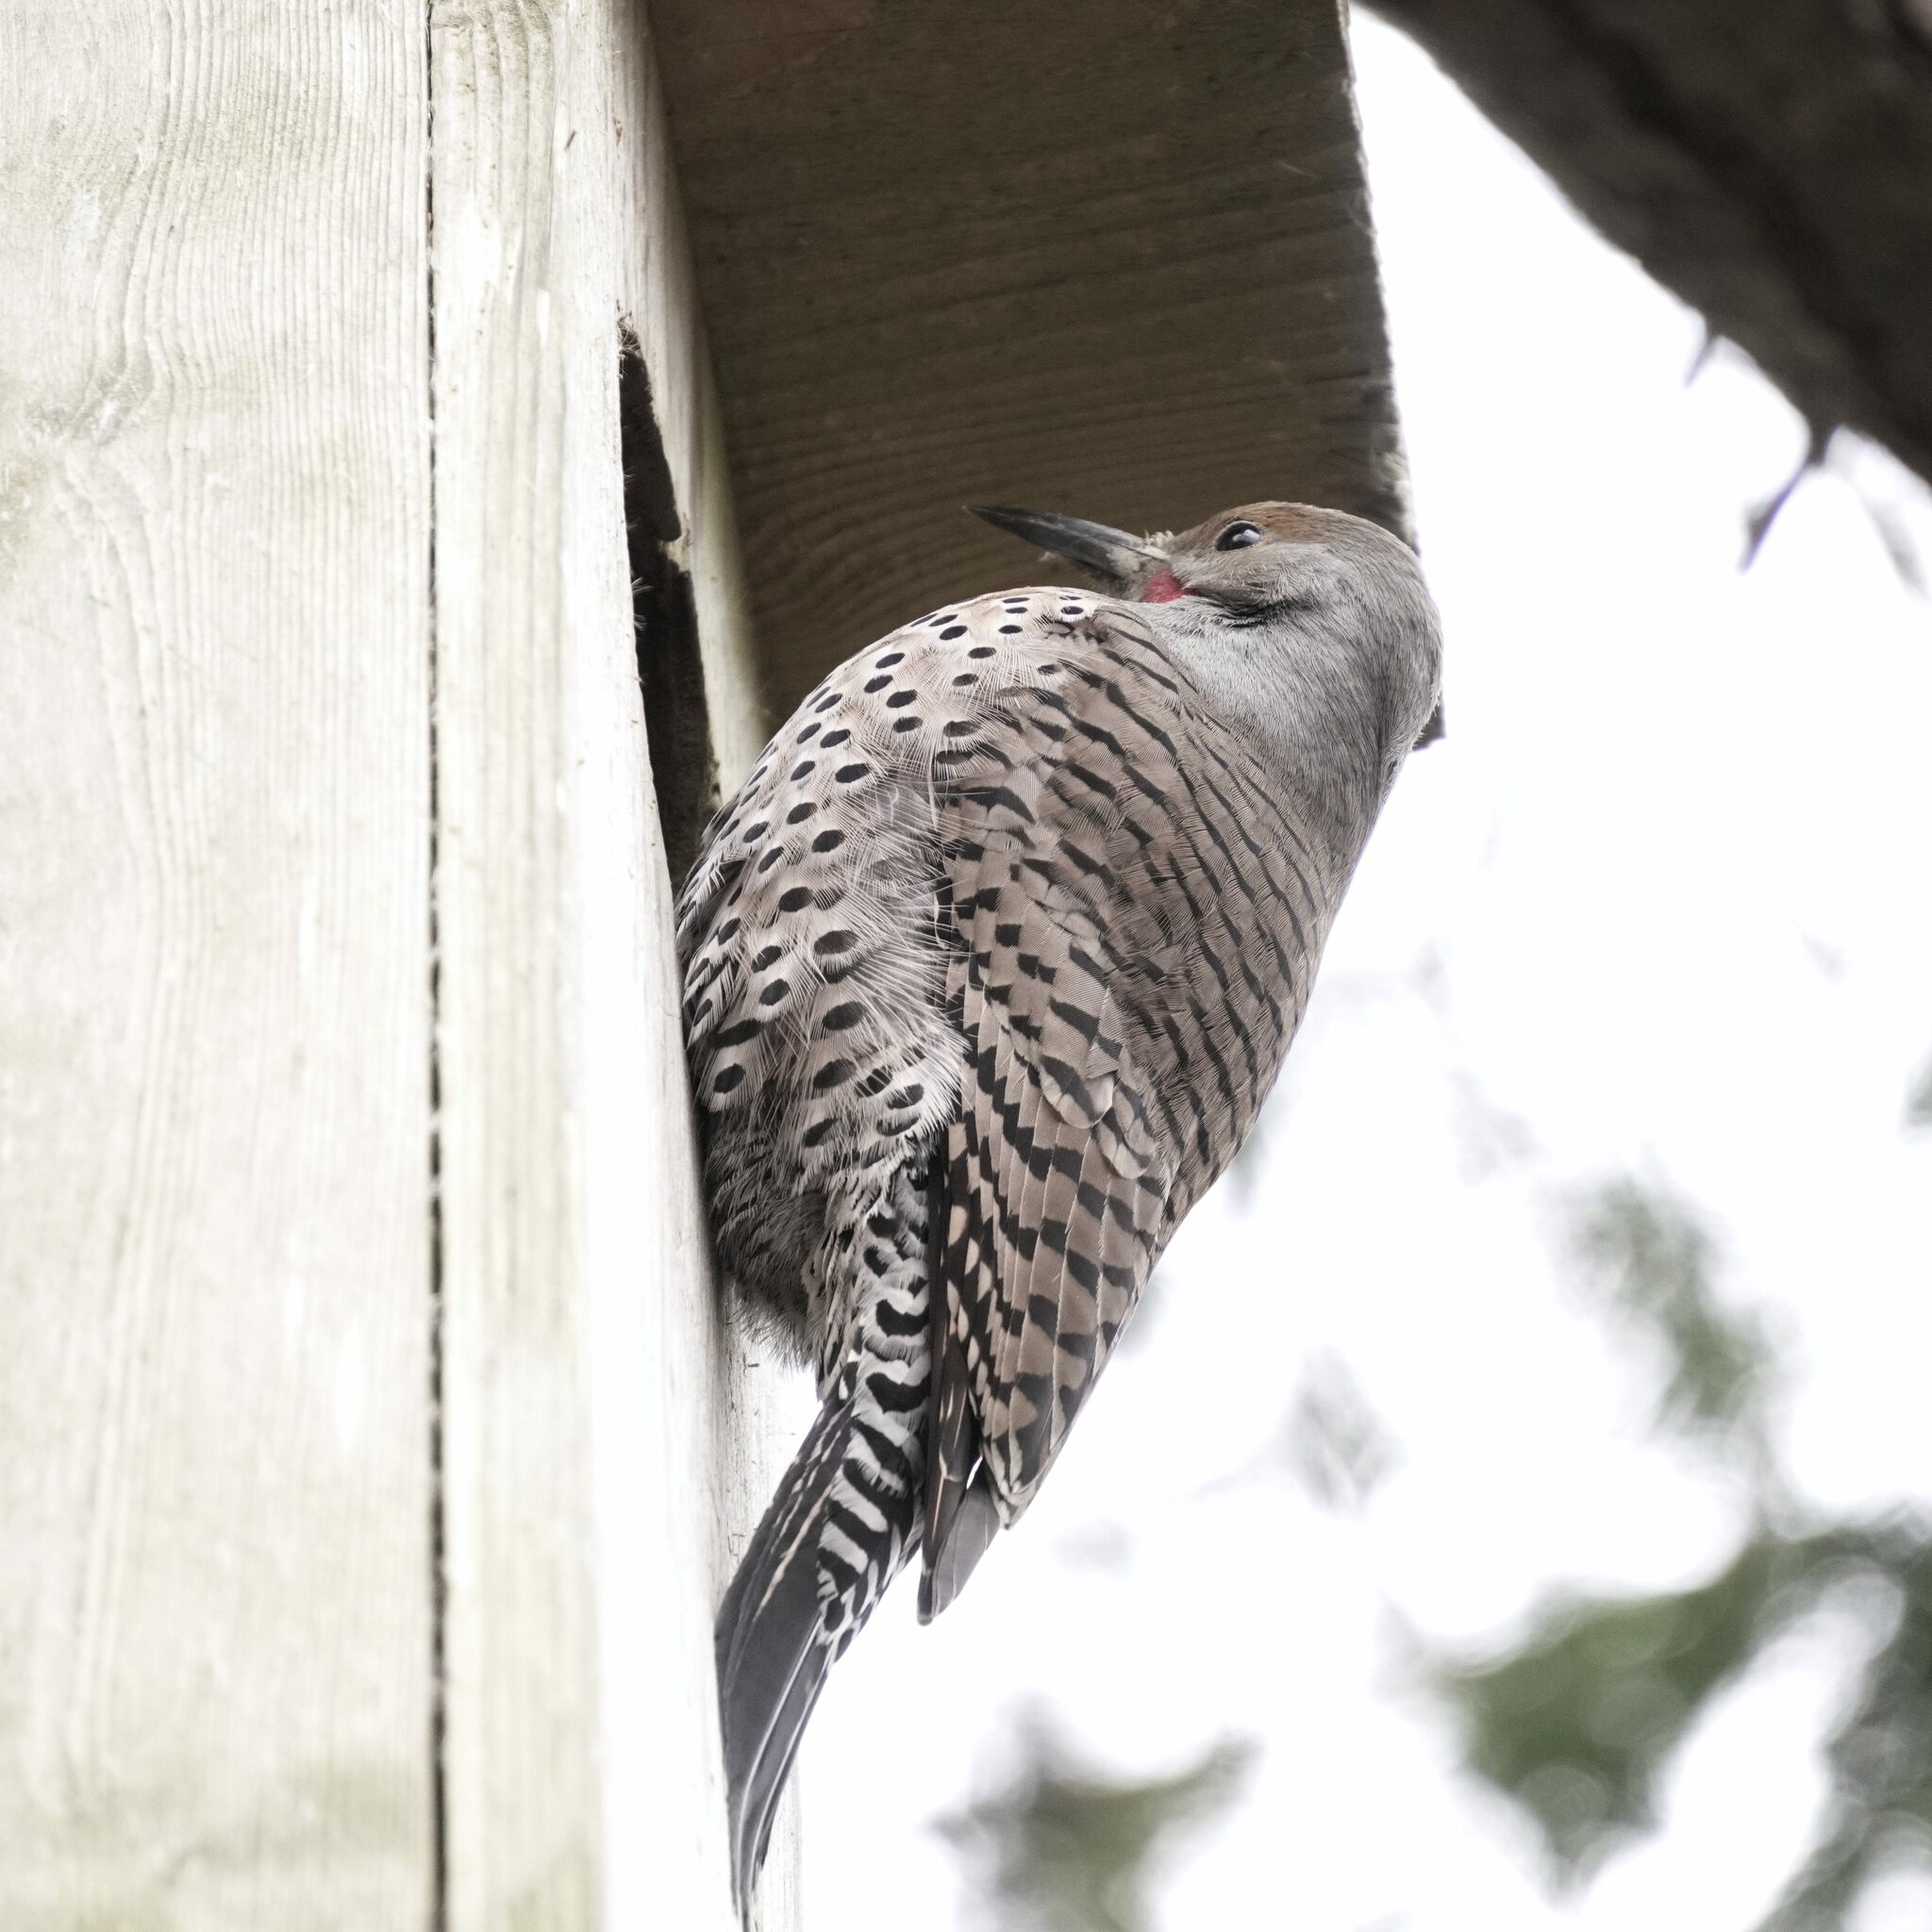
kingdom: Animalia
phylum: Chordata
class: Aves
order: Piciformes
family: Picidae
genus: Colaptes
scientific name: Colaptes auratus
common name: Northern flicker
